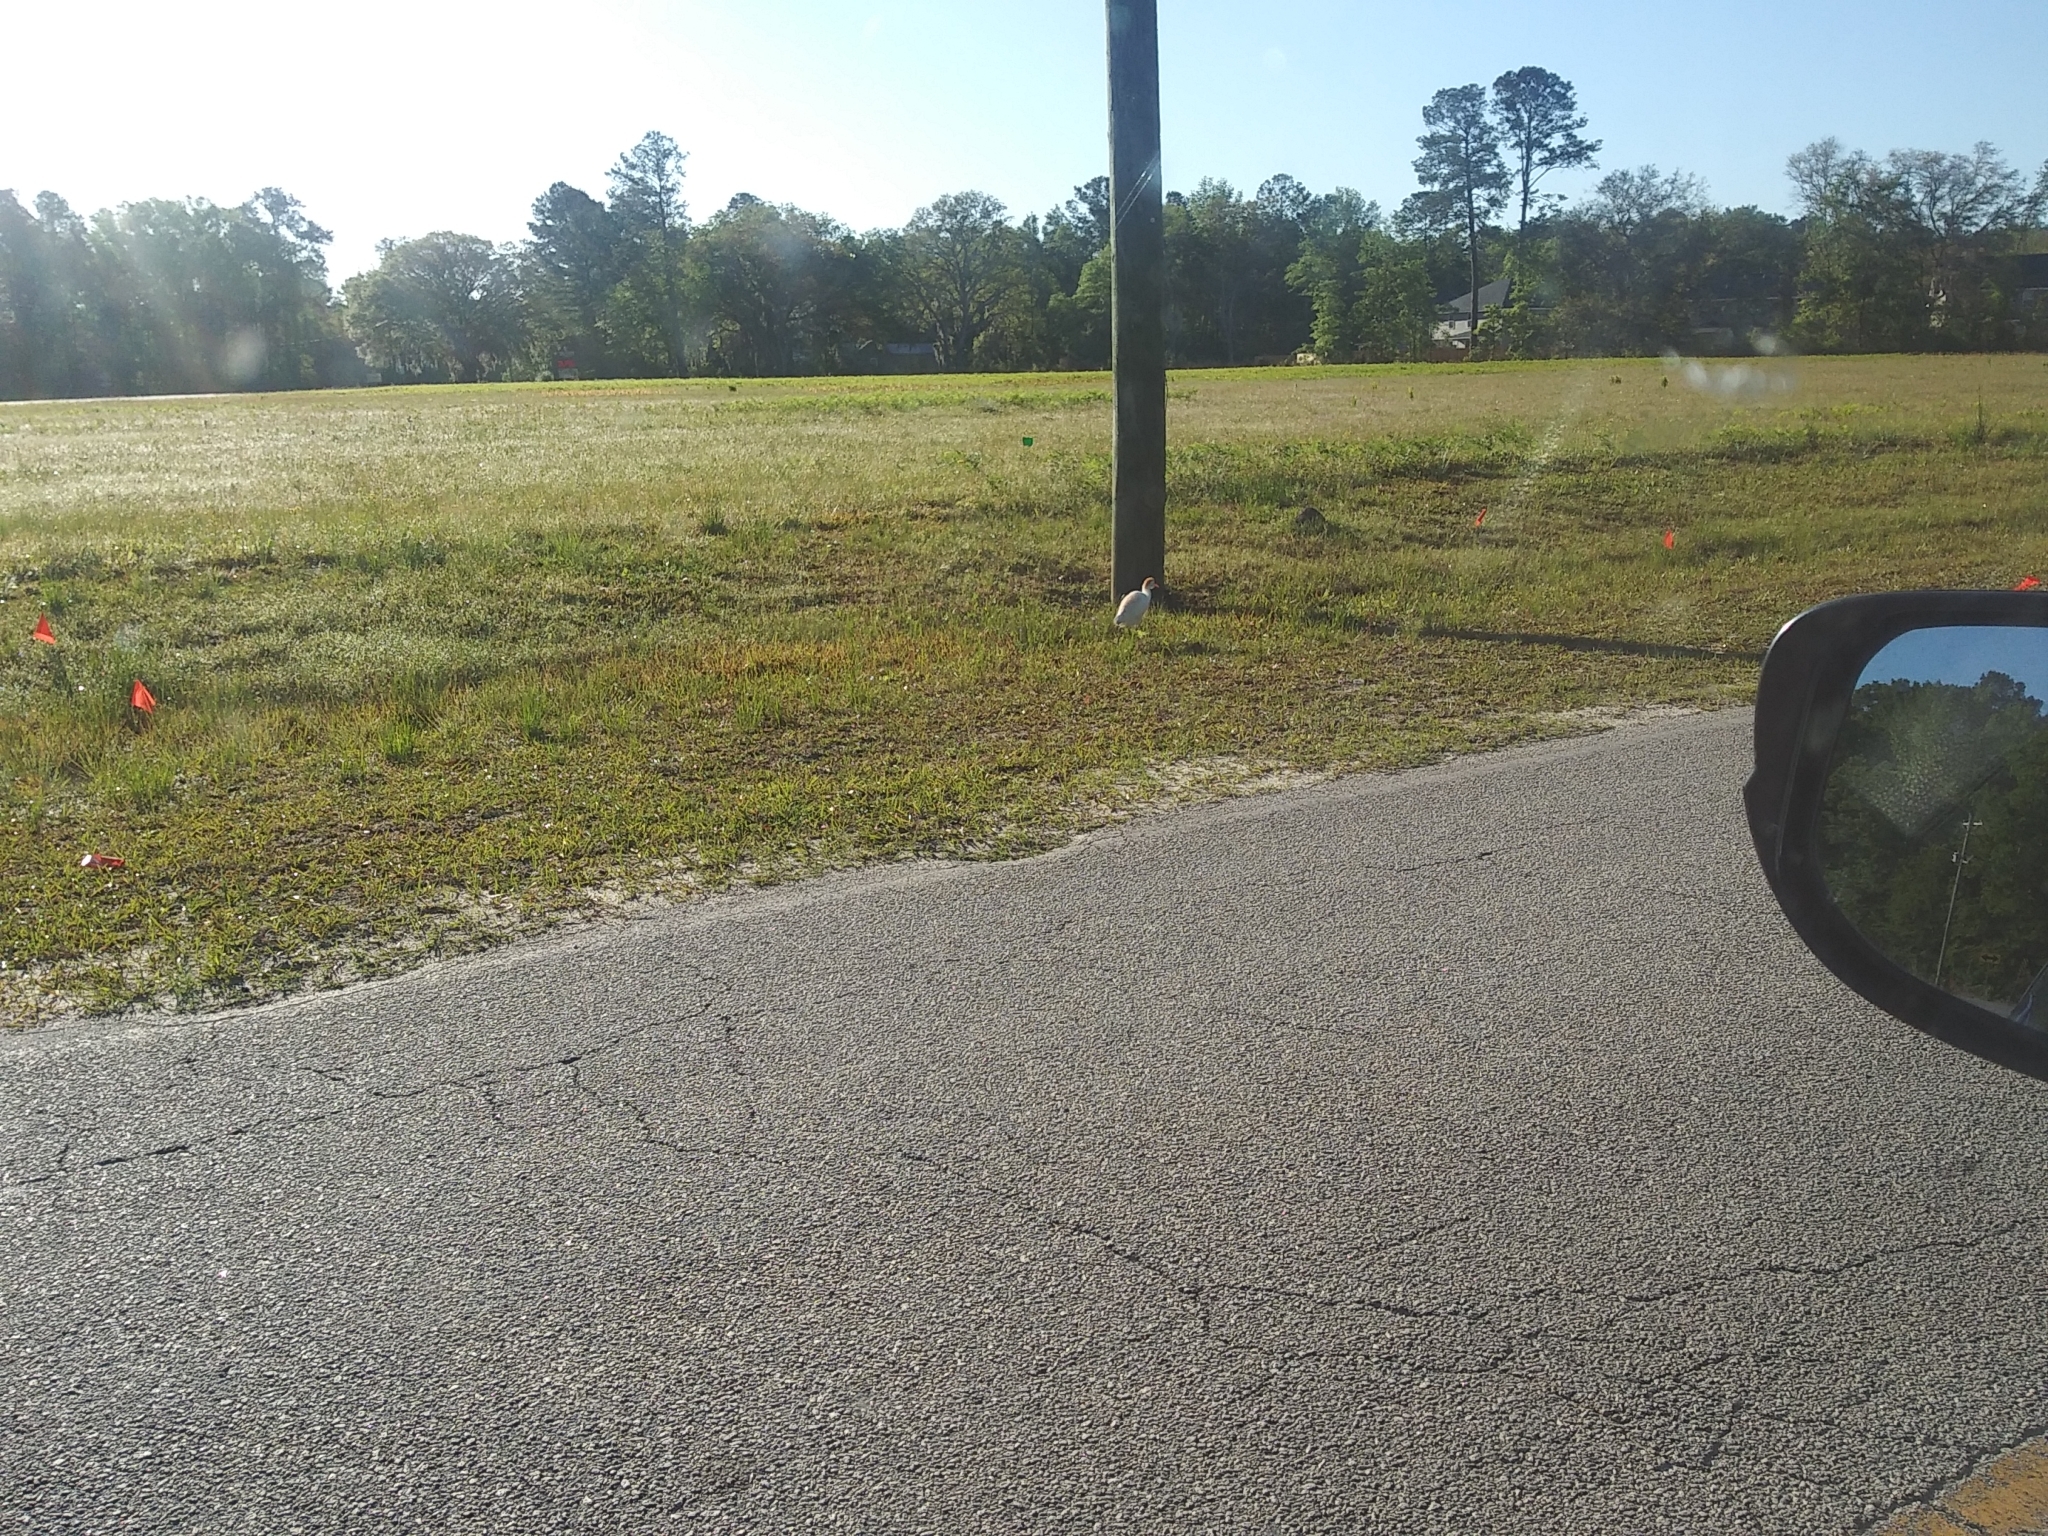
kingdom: Animalia
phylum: Chordata
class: Aves
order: Pelecaniformes
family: Ardeidae
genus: Bubulcus
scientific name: Bubulcus ibis
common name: Cattle egret
